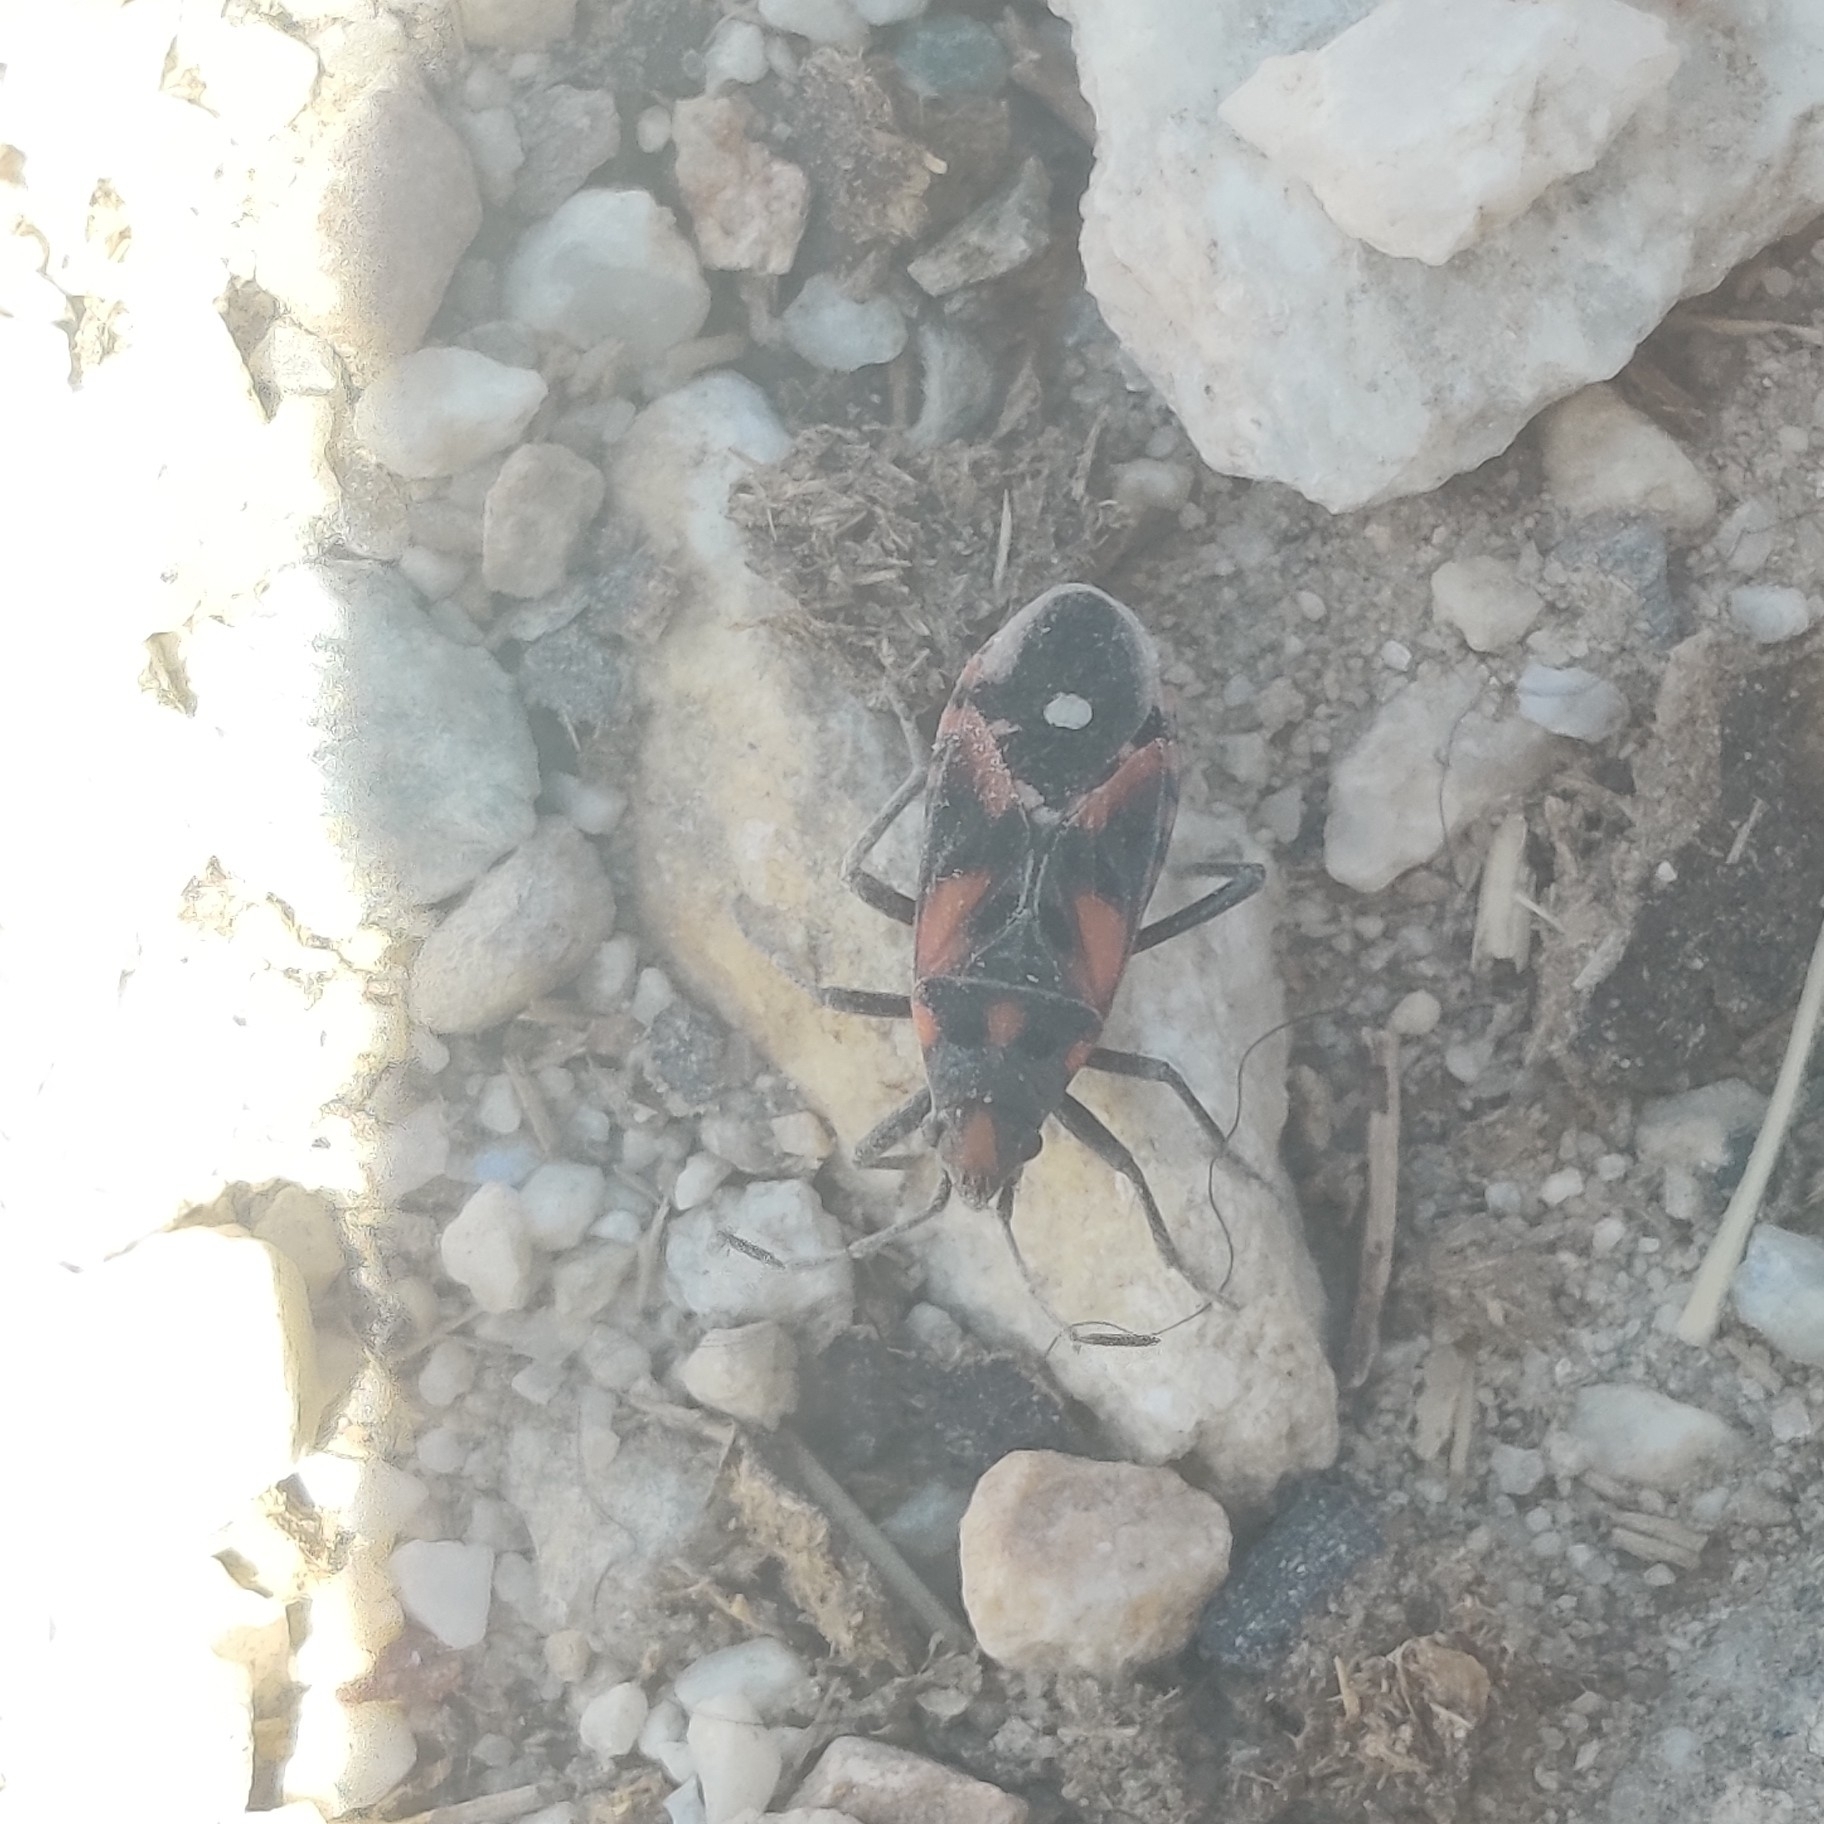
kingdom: Animalia
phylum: Arthropoda
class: Insecta
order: Hemiptera
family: Lygaeidae
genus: Lygaeus
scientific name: Lygaeus melanostolus
